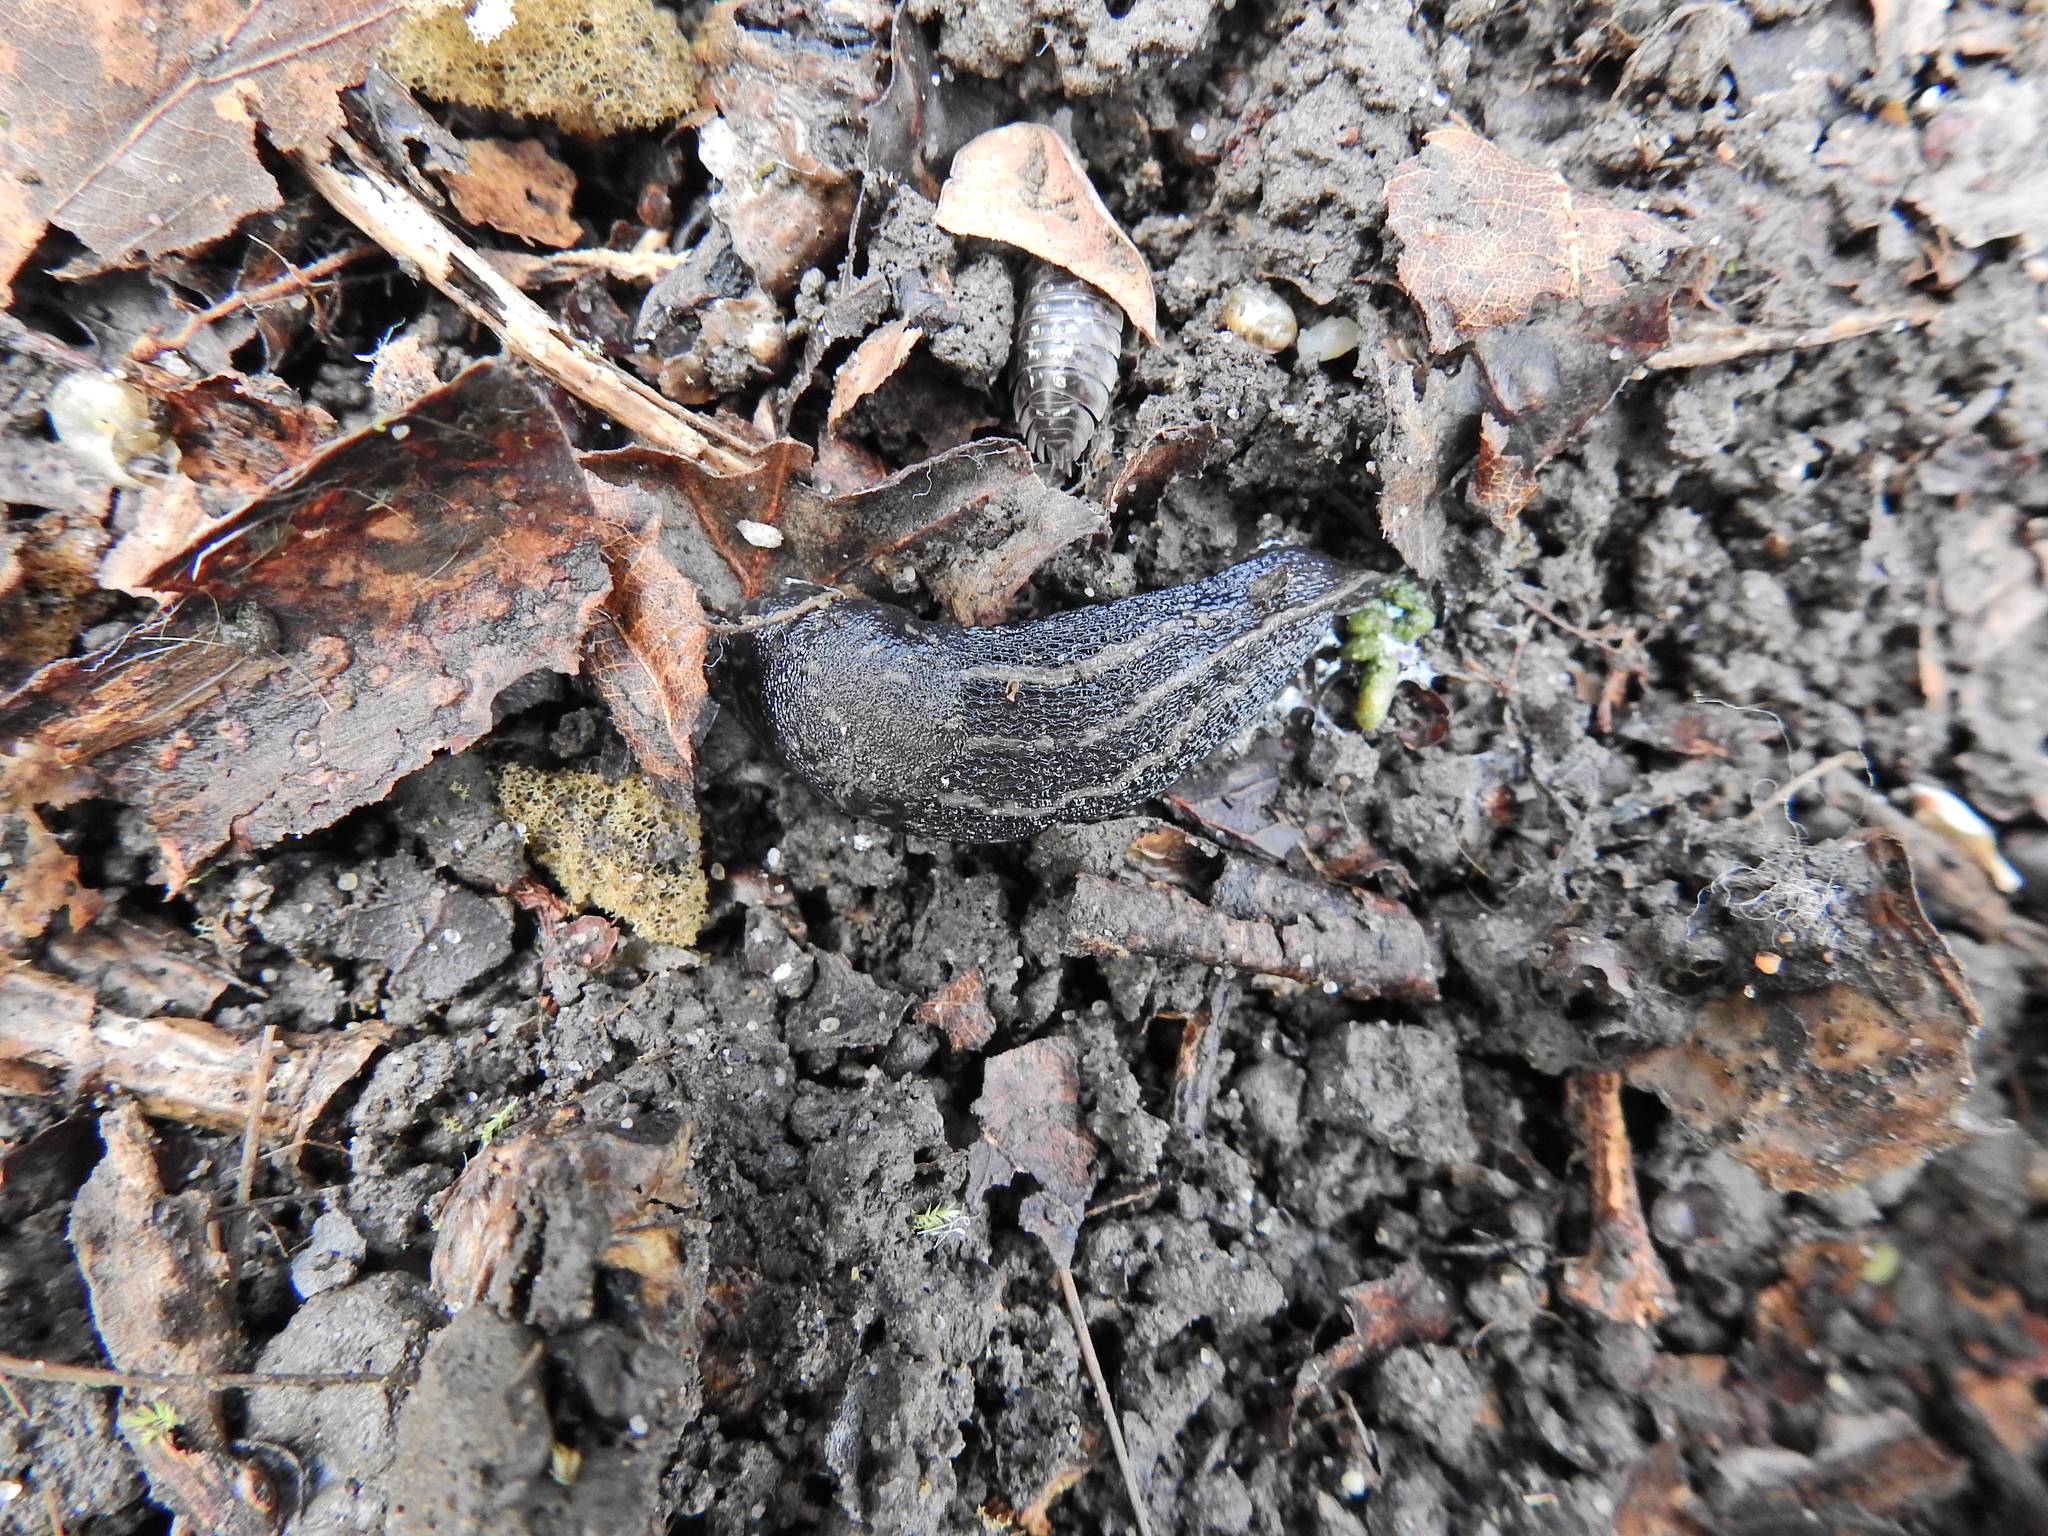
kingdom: Animalia
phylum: Mollusca
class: Gastropoda
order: Stylommatophora
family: Limacidae
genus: Limax
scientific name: Limax maximus
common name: Great grey slug
